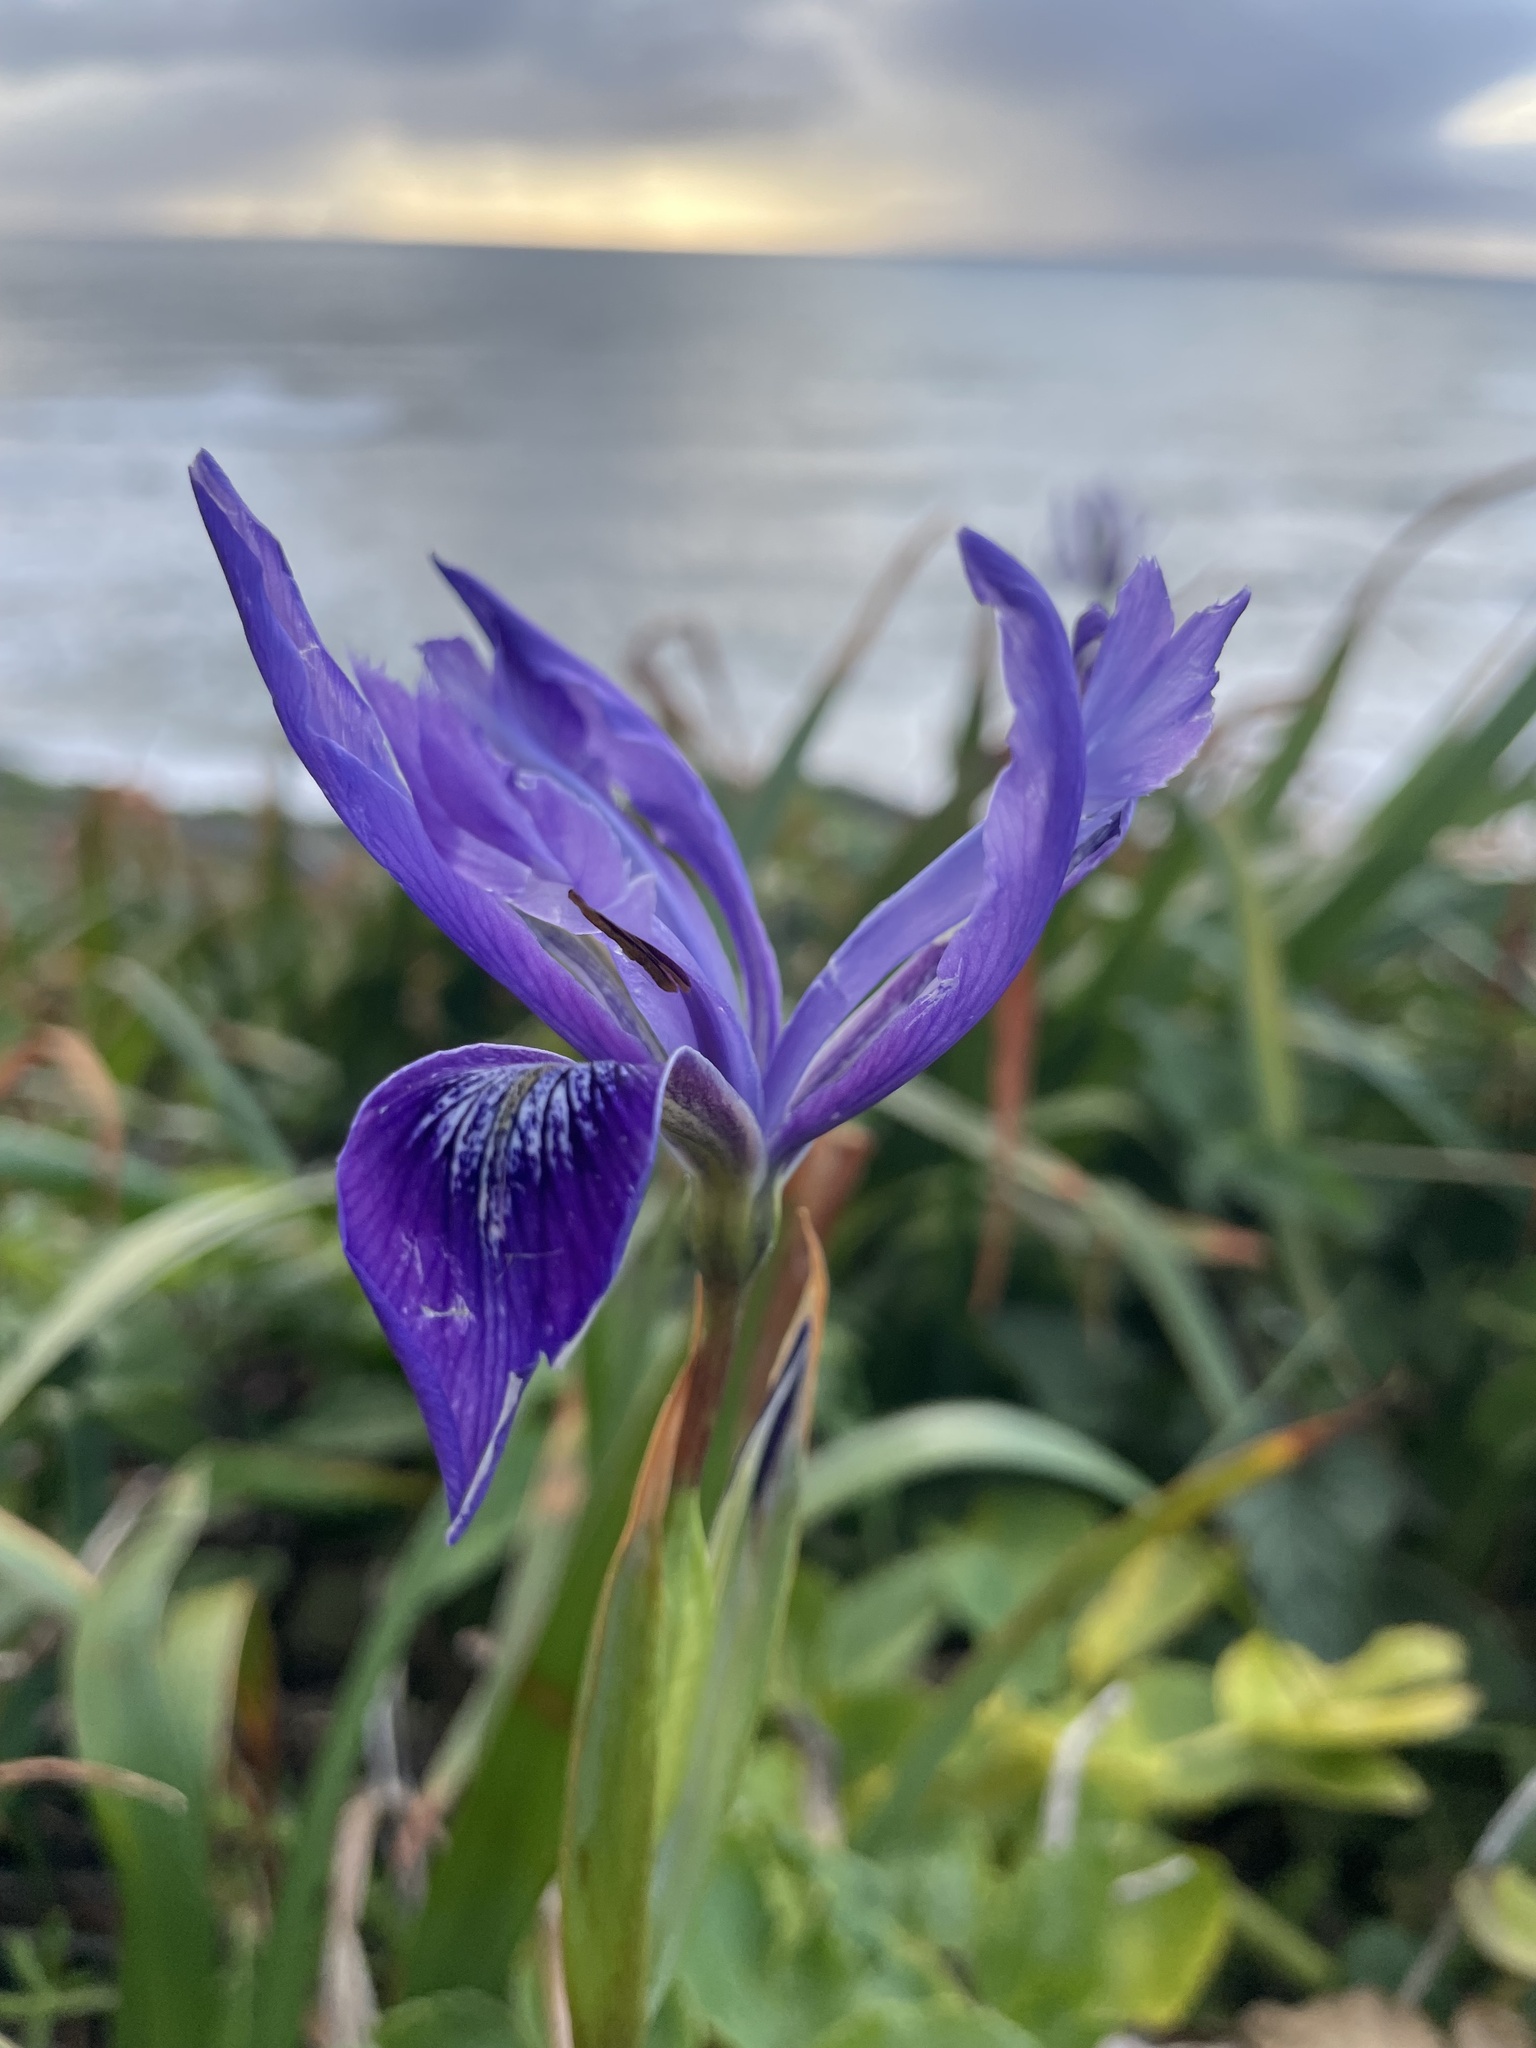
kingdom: Plantae
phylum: Tracheophyta
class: Liliopsida
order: Asparagales
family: Iridaceae
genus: Iris
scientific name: Iris douglasiana
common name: Marin iris
